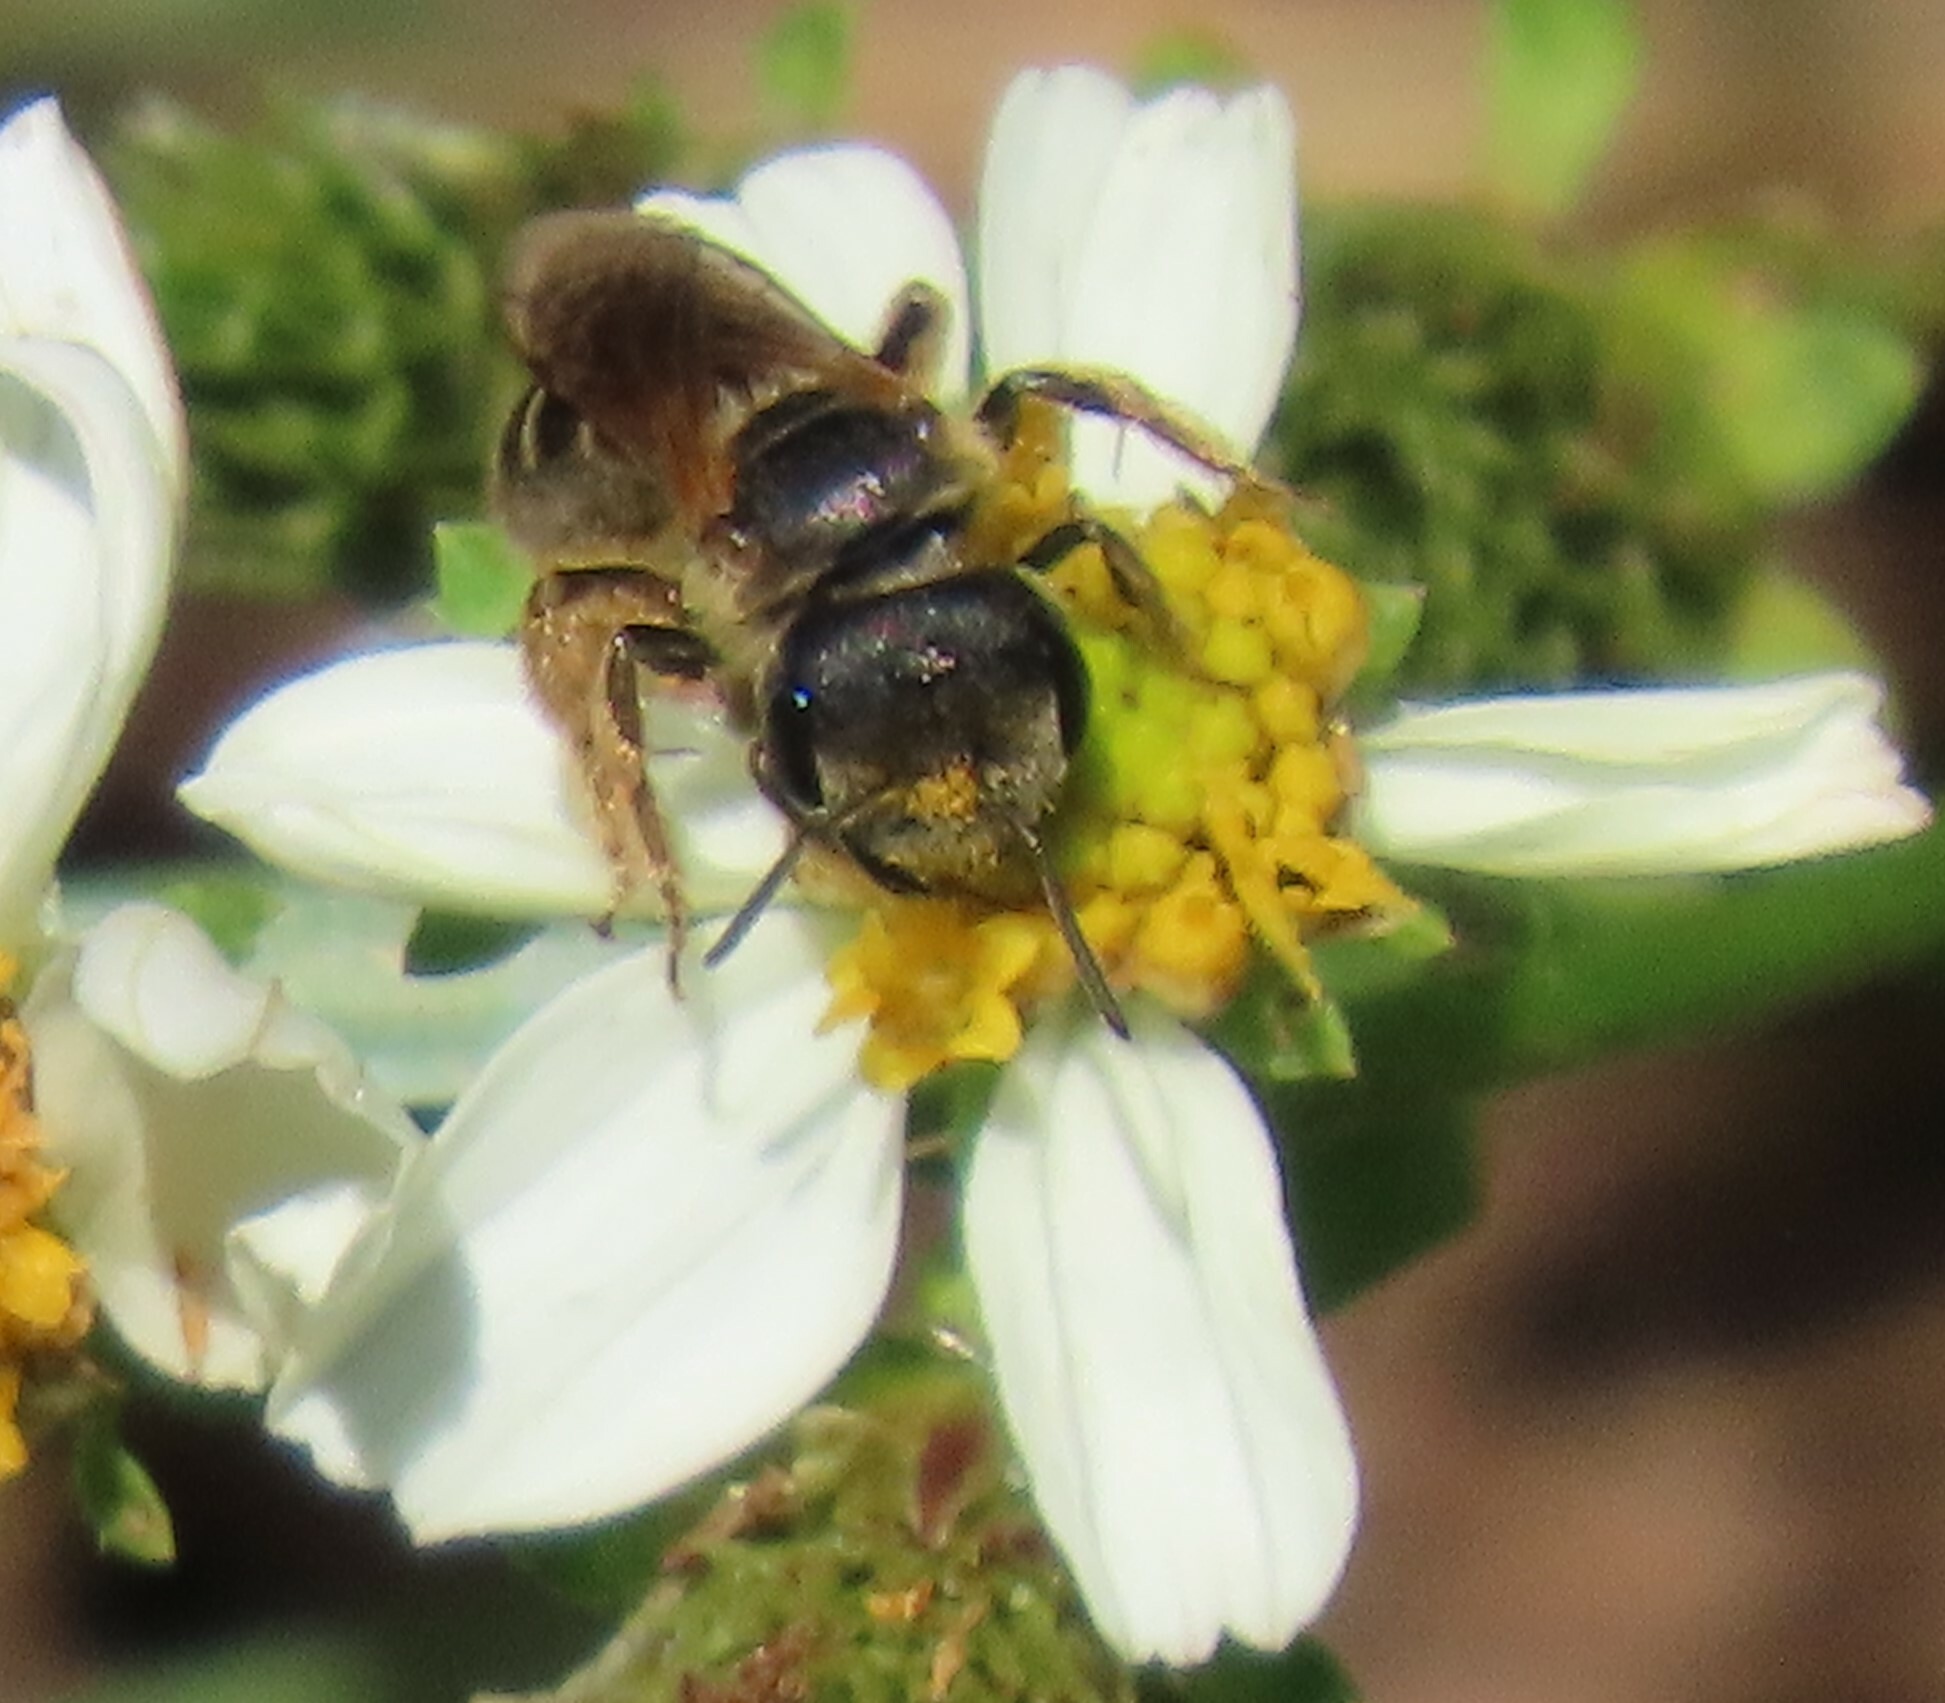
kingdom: Animalia
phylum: Arthropoda
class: Insecta
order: Hymenoptera
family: Halictidae
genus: Halictus
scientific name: Halictus poeyi
